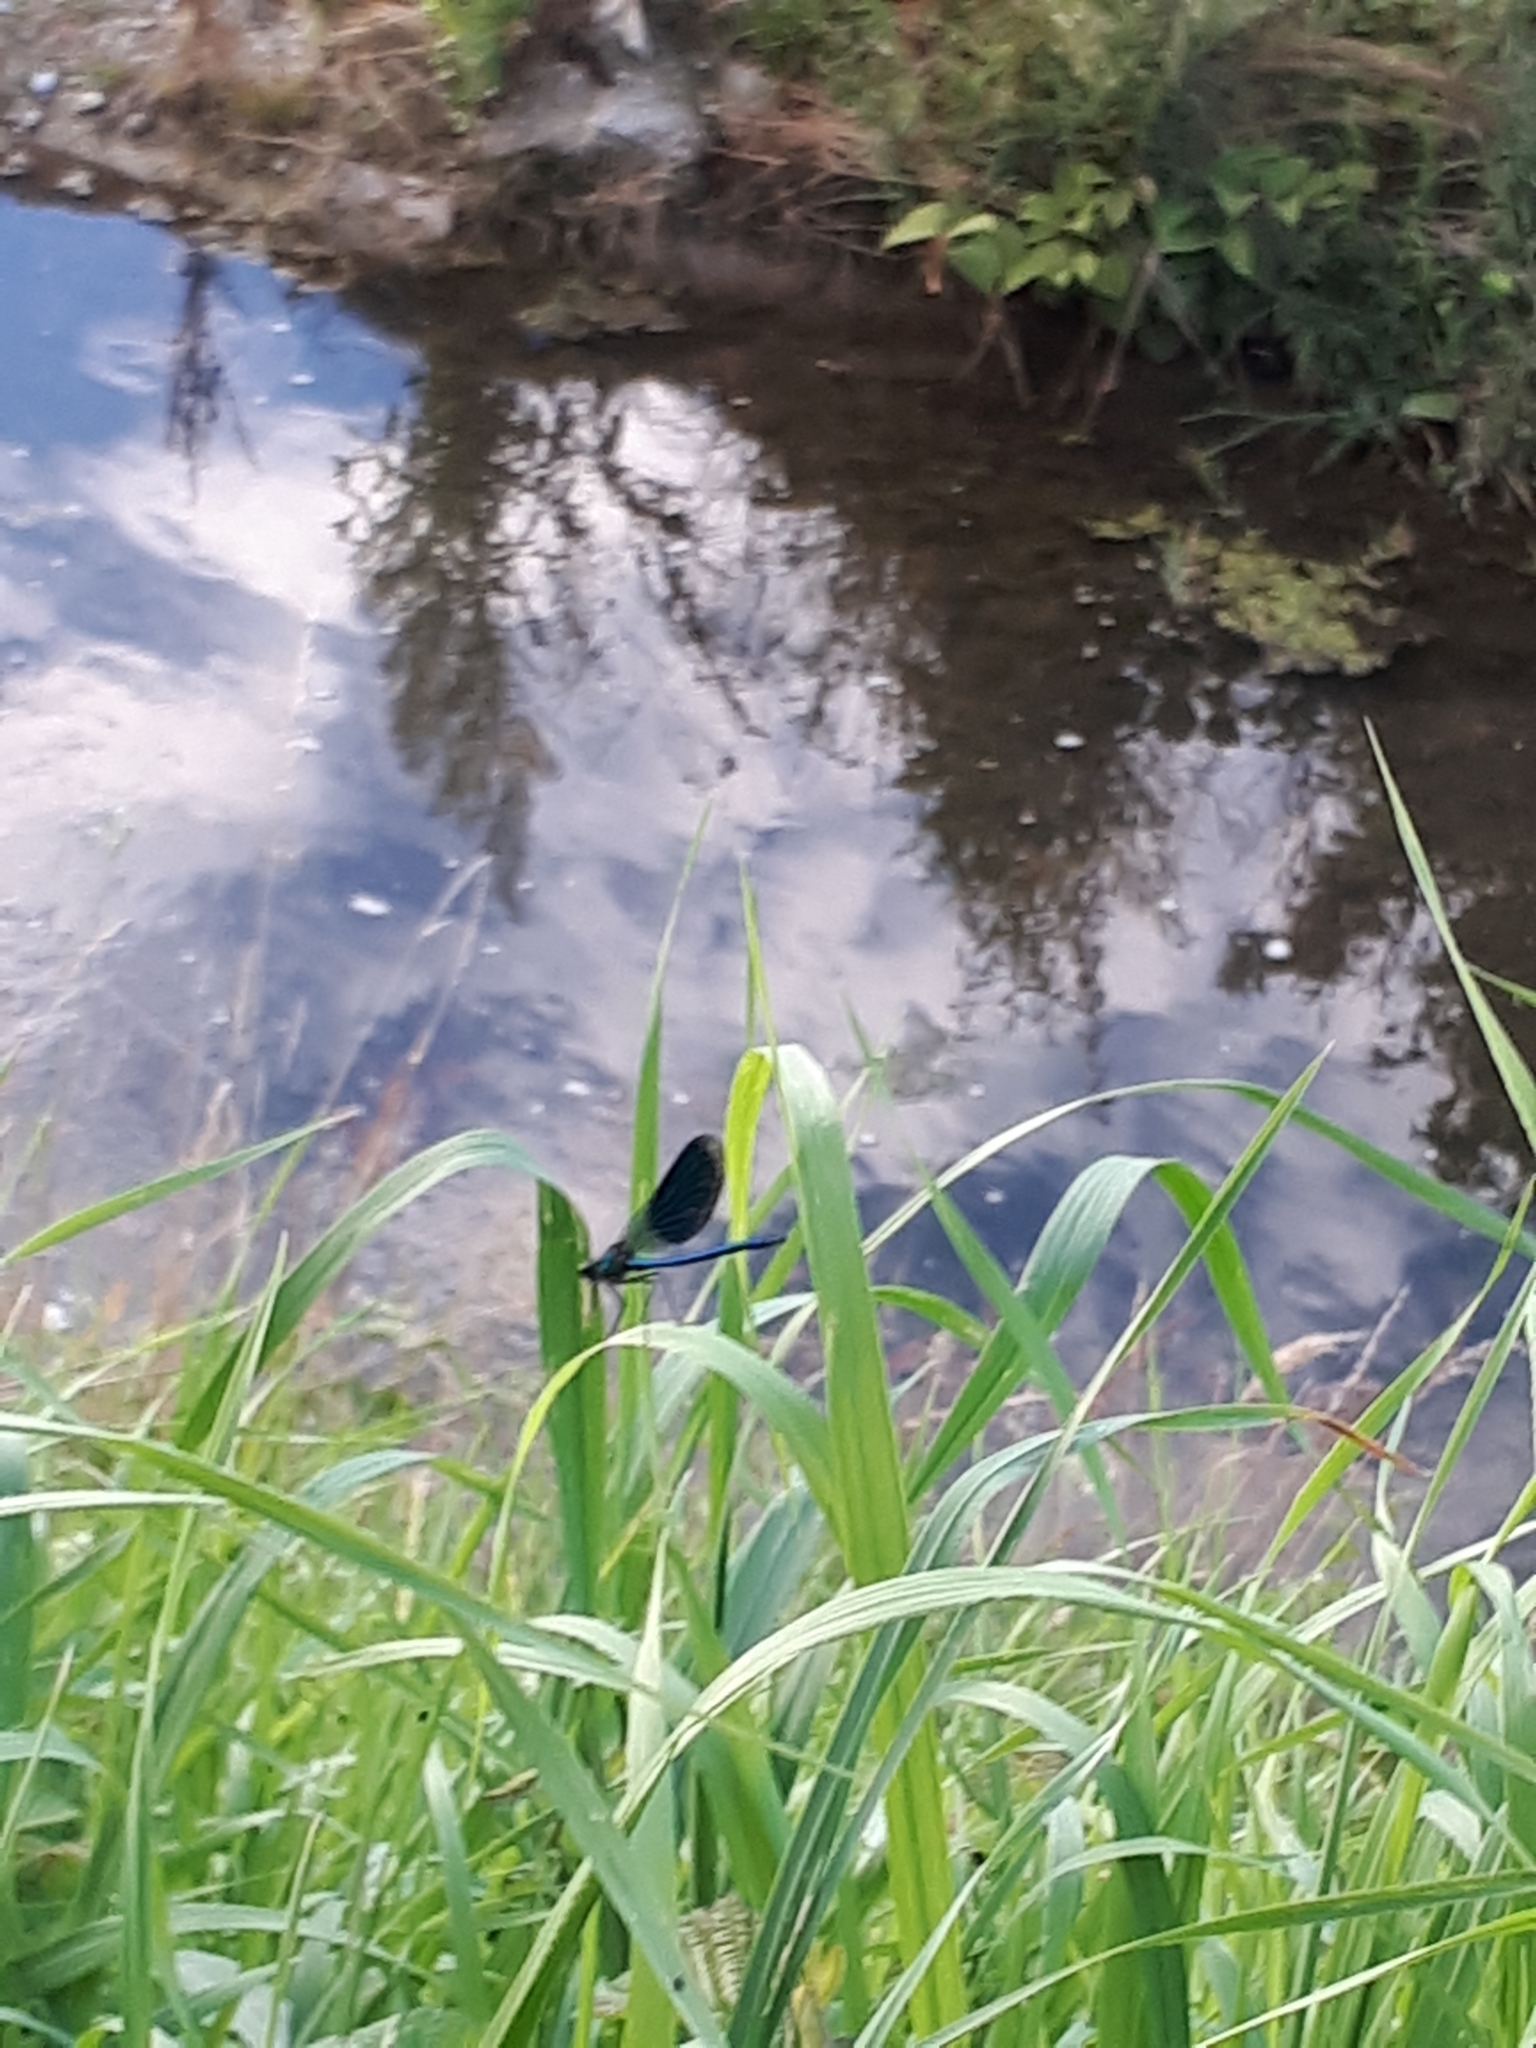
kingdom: Animalia
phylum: Arthropoda
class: Insecta
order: Odonata
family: Calopterygidae
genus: Calopteryx
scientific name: Calopteryx splendens
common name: Banded demoiselle
